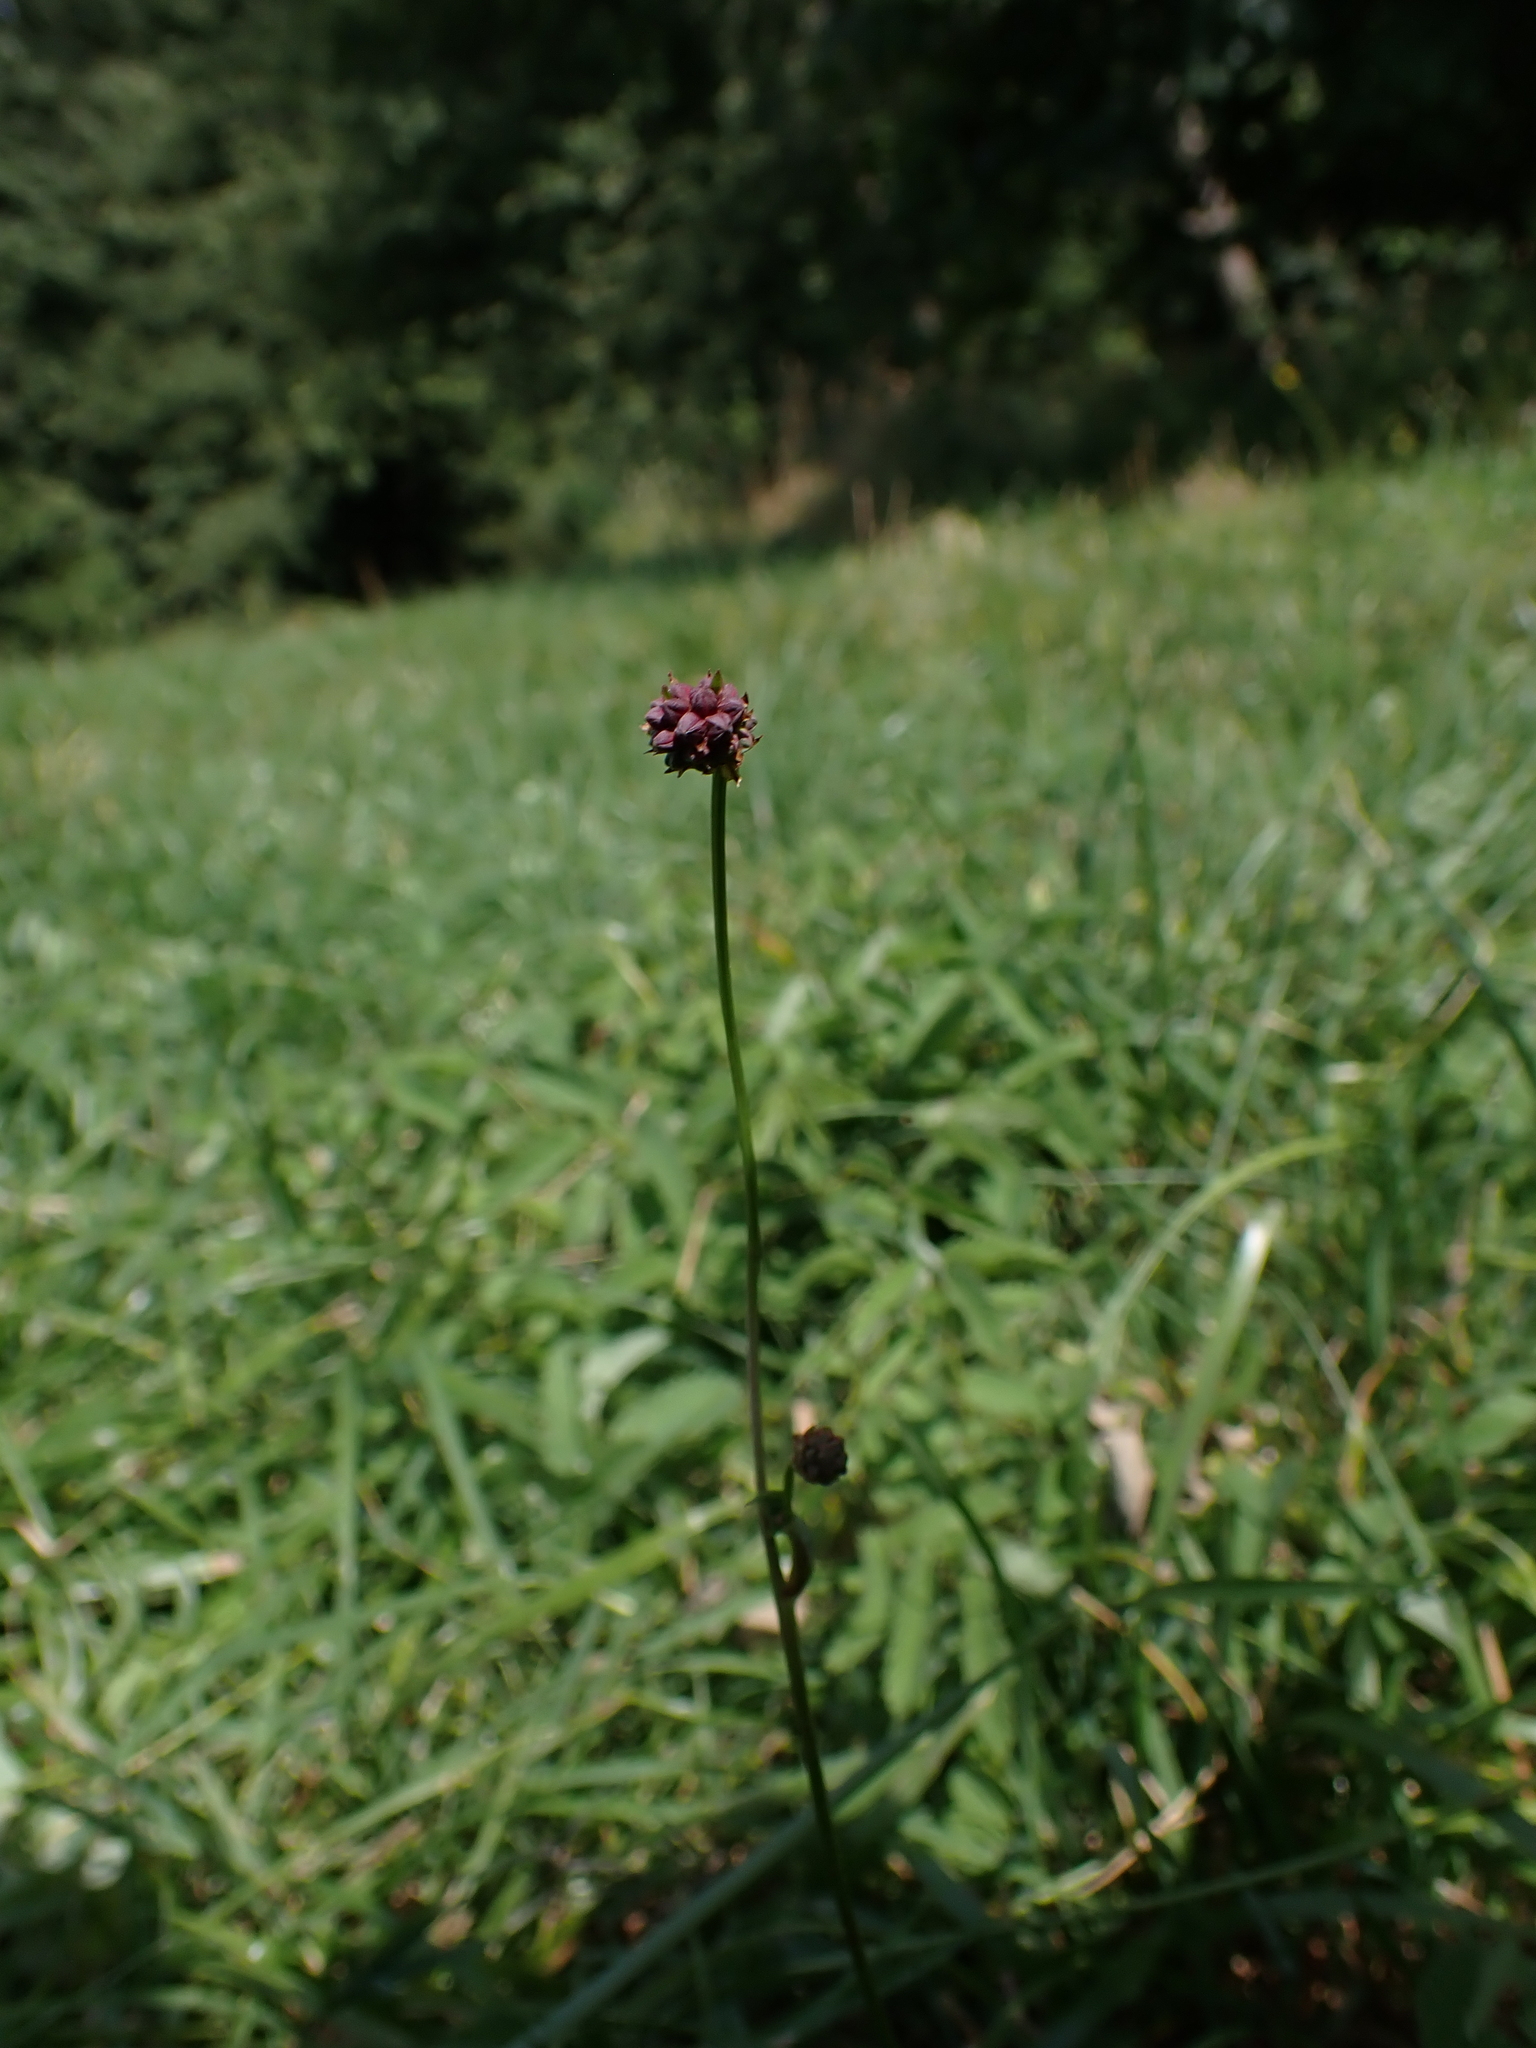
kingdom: Plantae
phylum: Tracheophyta
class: Magnoliopsida
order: Rosales
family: Rosaceae
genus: Sanguisorba
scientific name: Sanguisorba officinalis
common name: Great burnet
